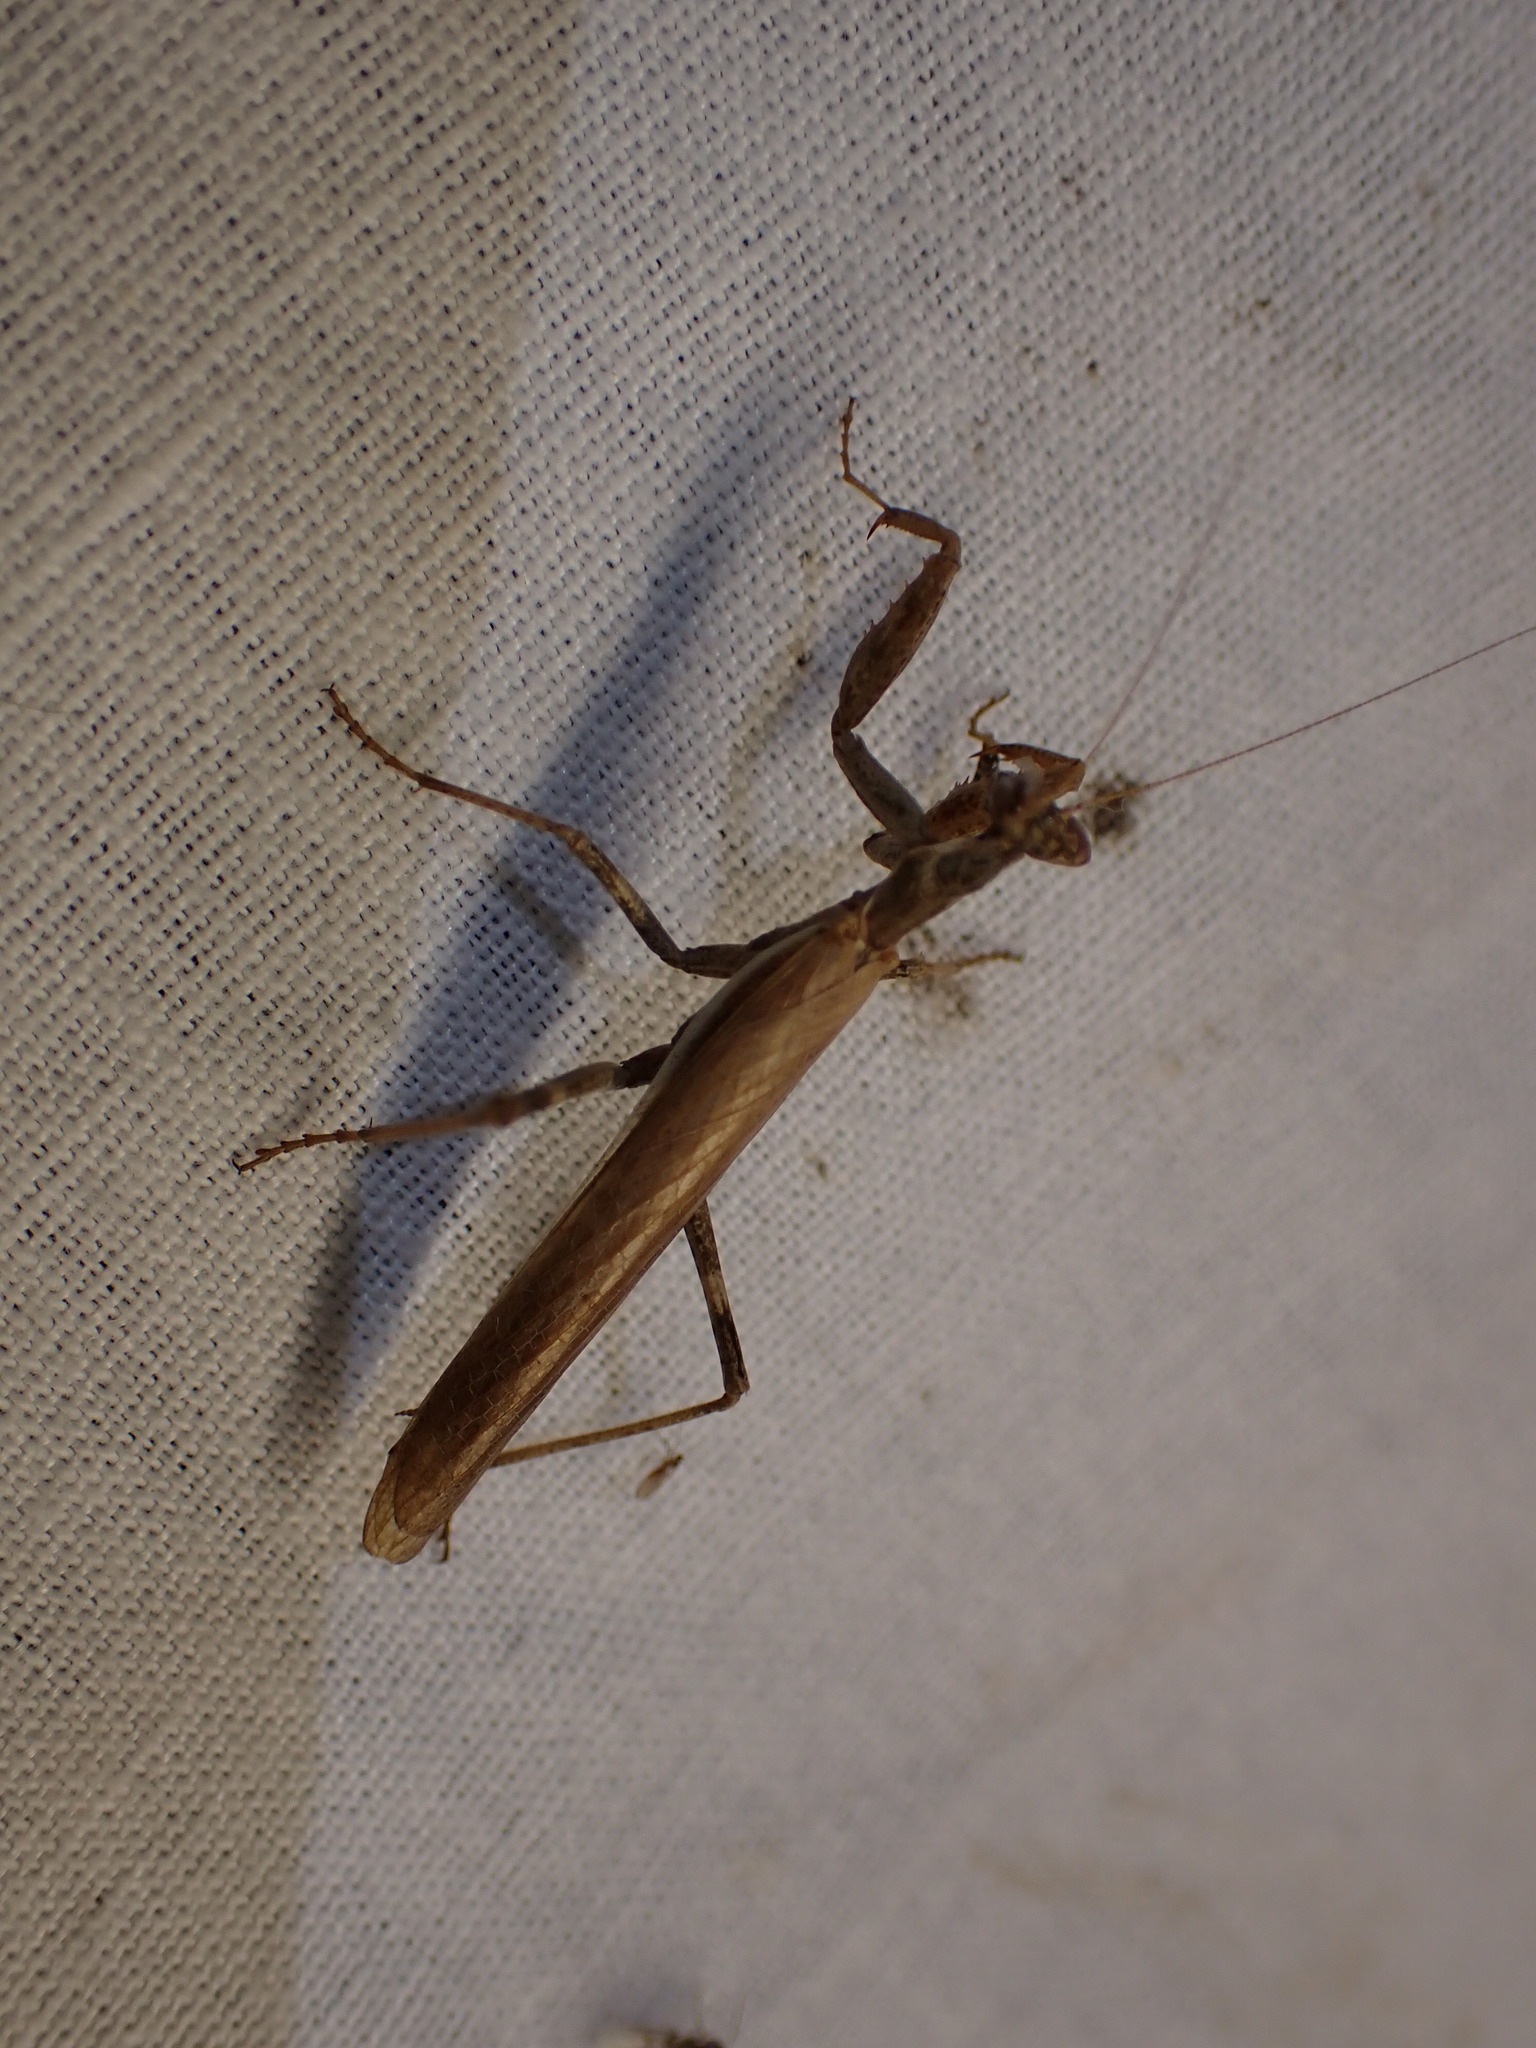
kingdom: Animalia
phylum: Arthropoda
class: Insecta
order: Mantodea
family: Amelidae
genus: Ameles
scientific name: Ameles decolor
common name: Dwarf mantis
